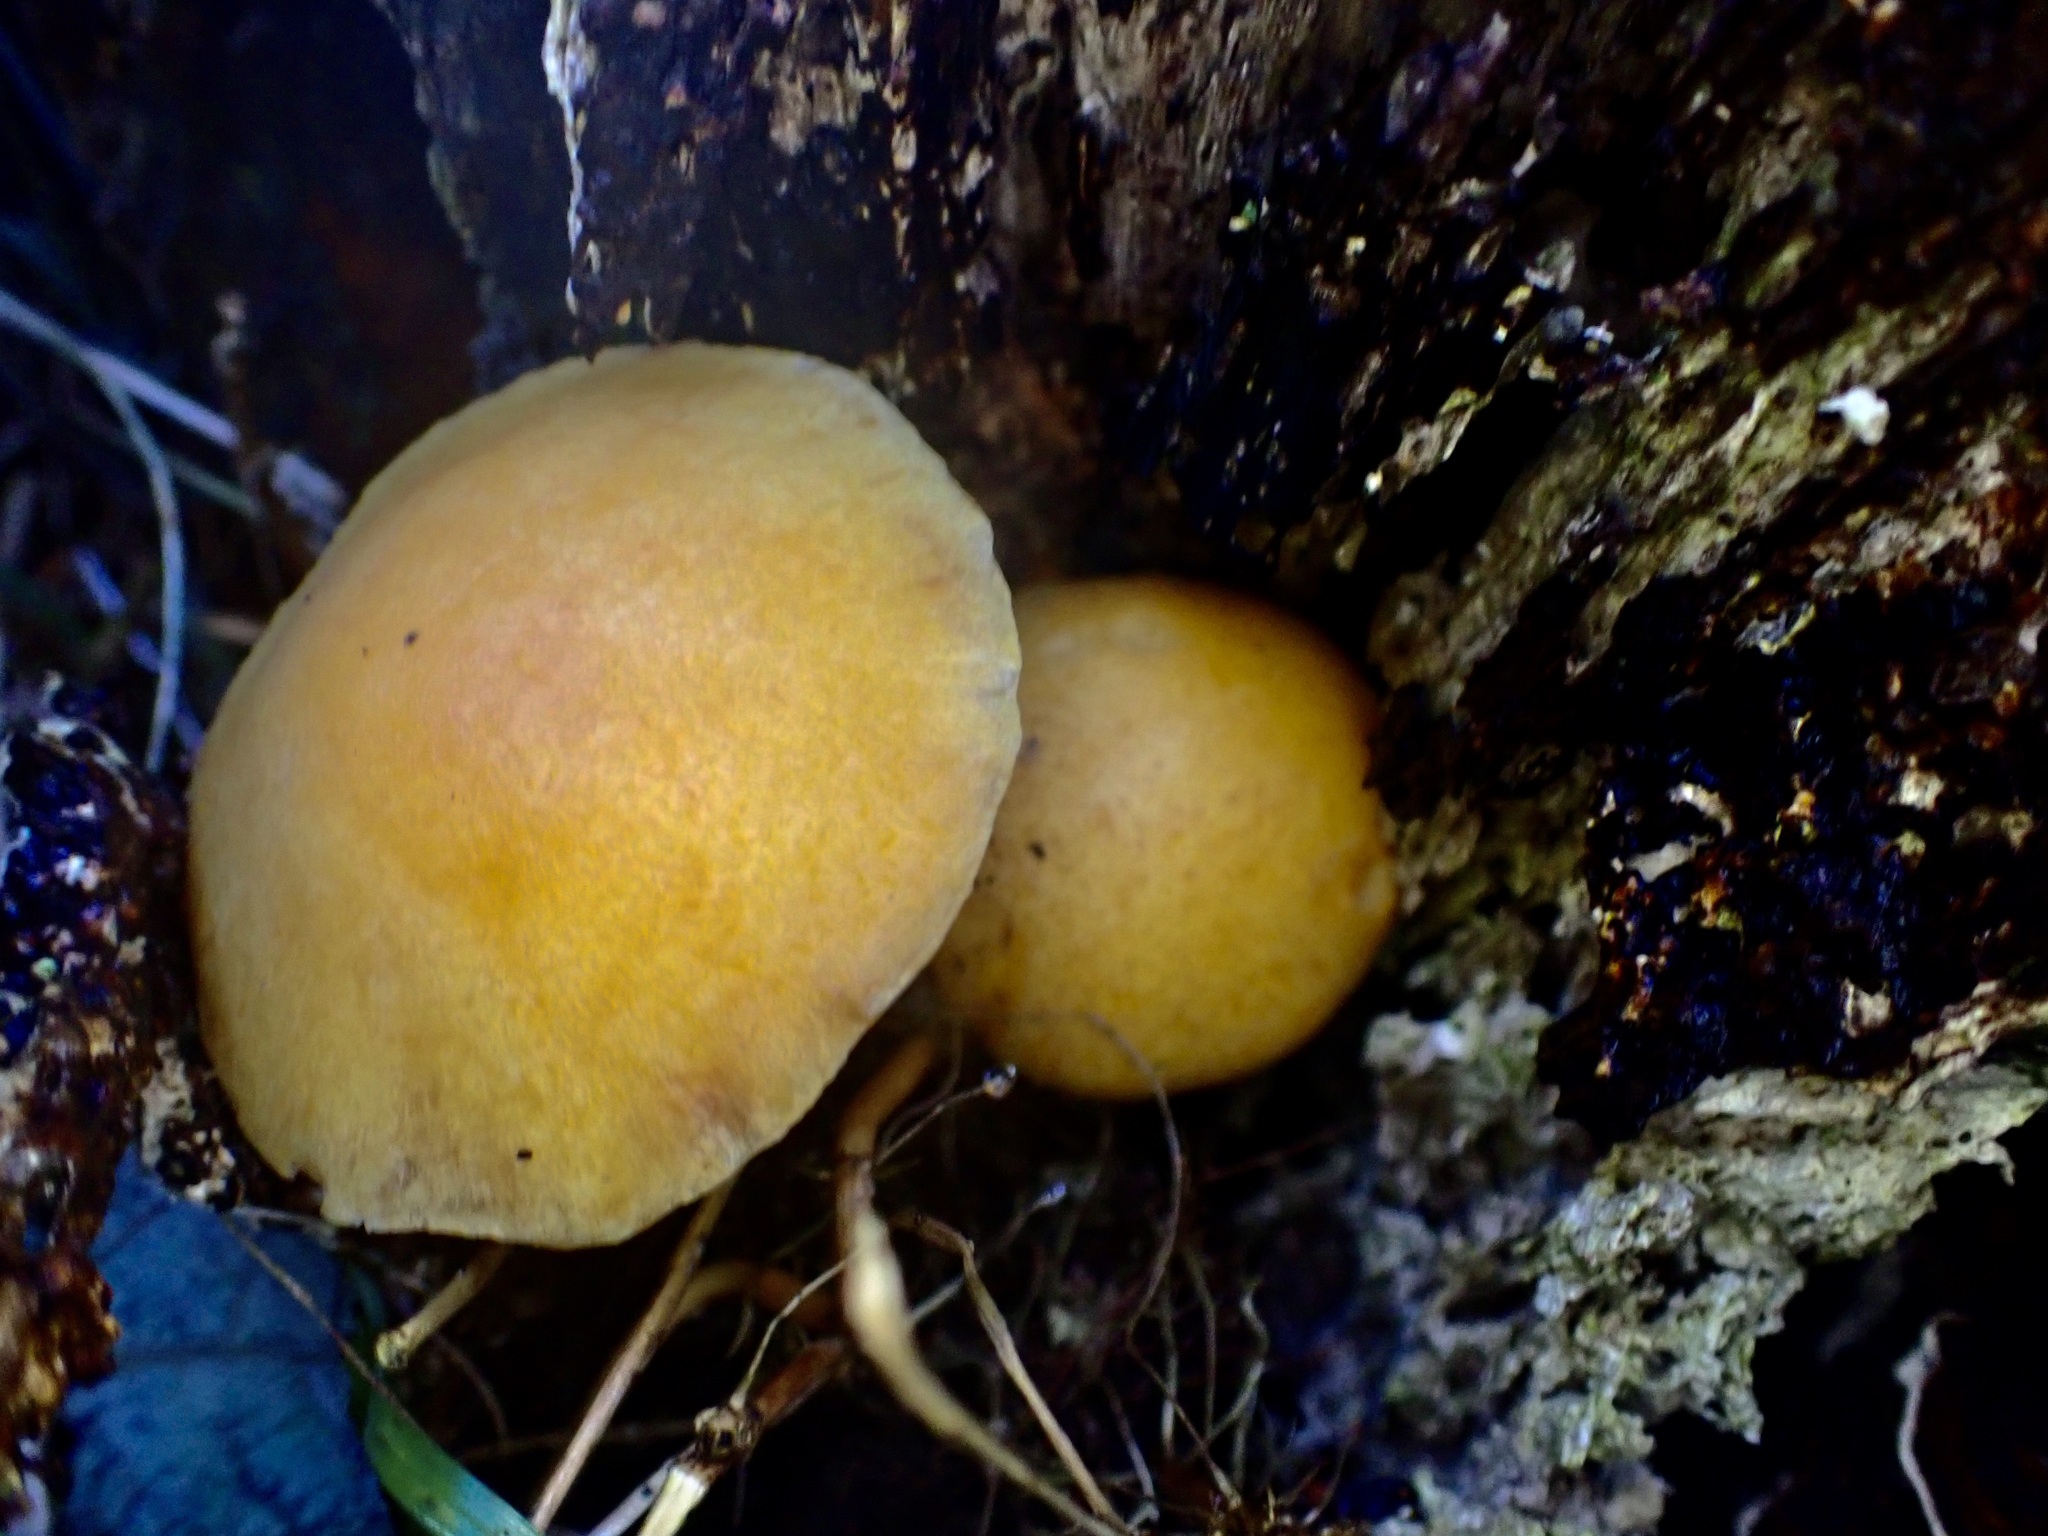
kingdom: Fungi
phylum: Basidiomycota
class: Agaricomycetes
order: Agaricales
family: Hymenogastraceae
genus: Gymnopilus
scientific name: Gymnopilus junonius
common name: Spectacular rustgill
